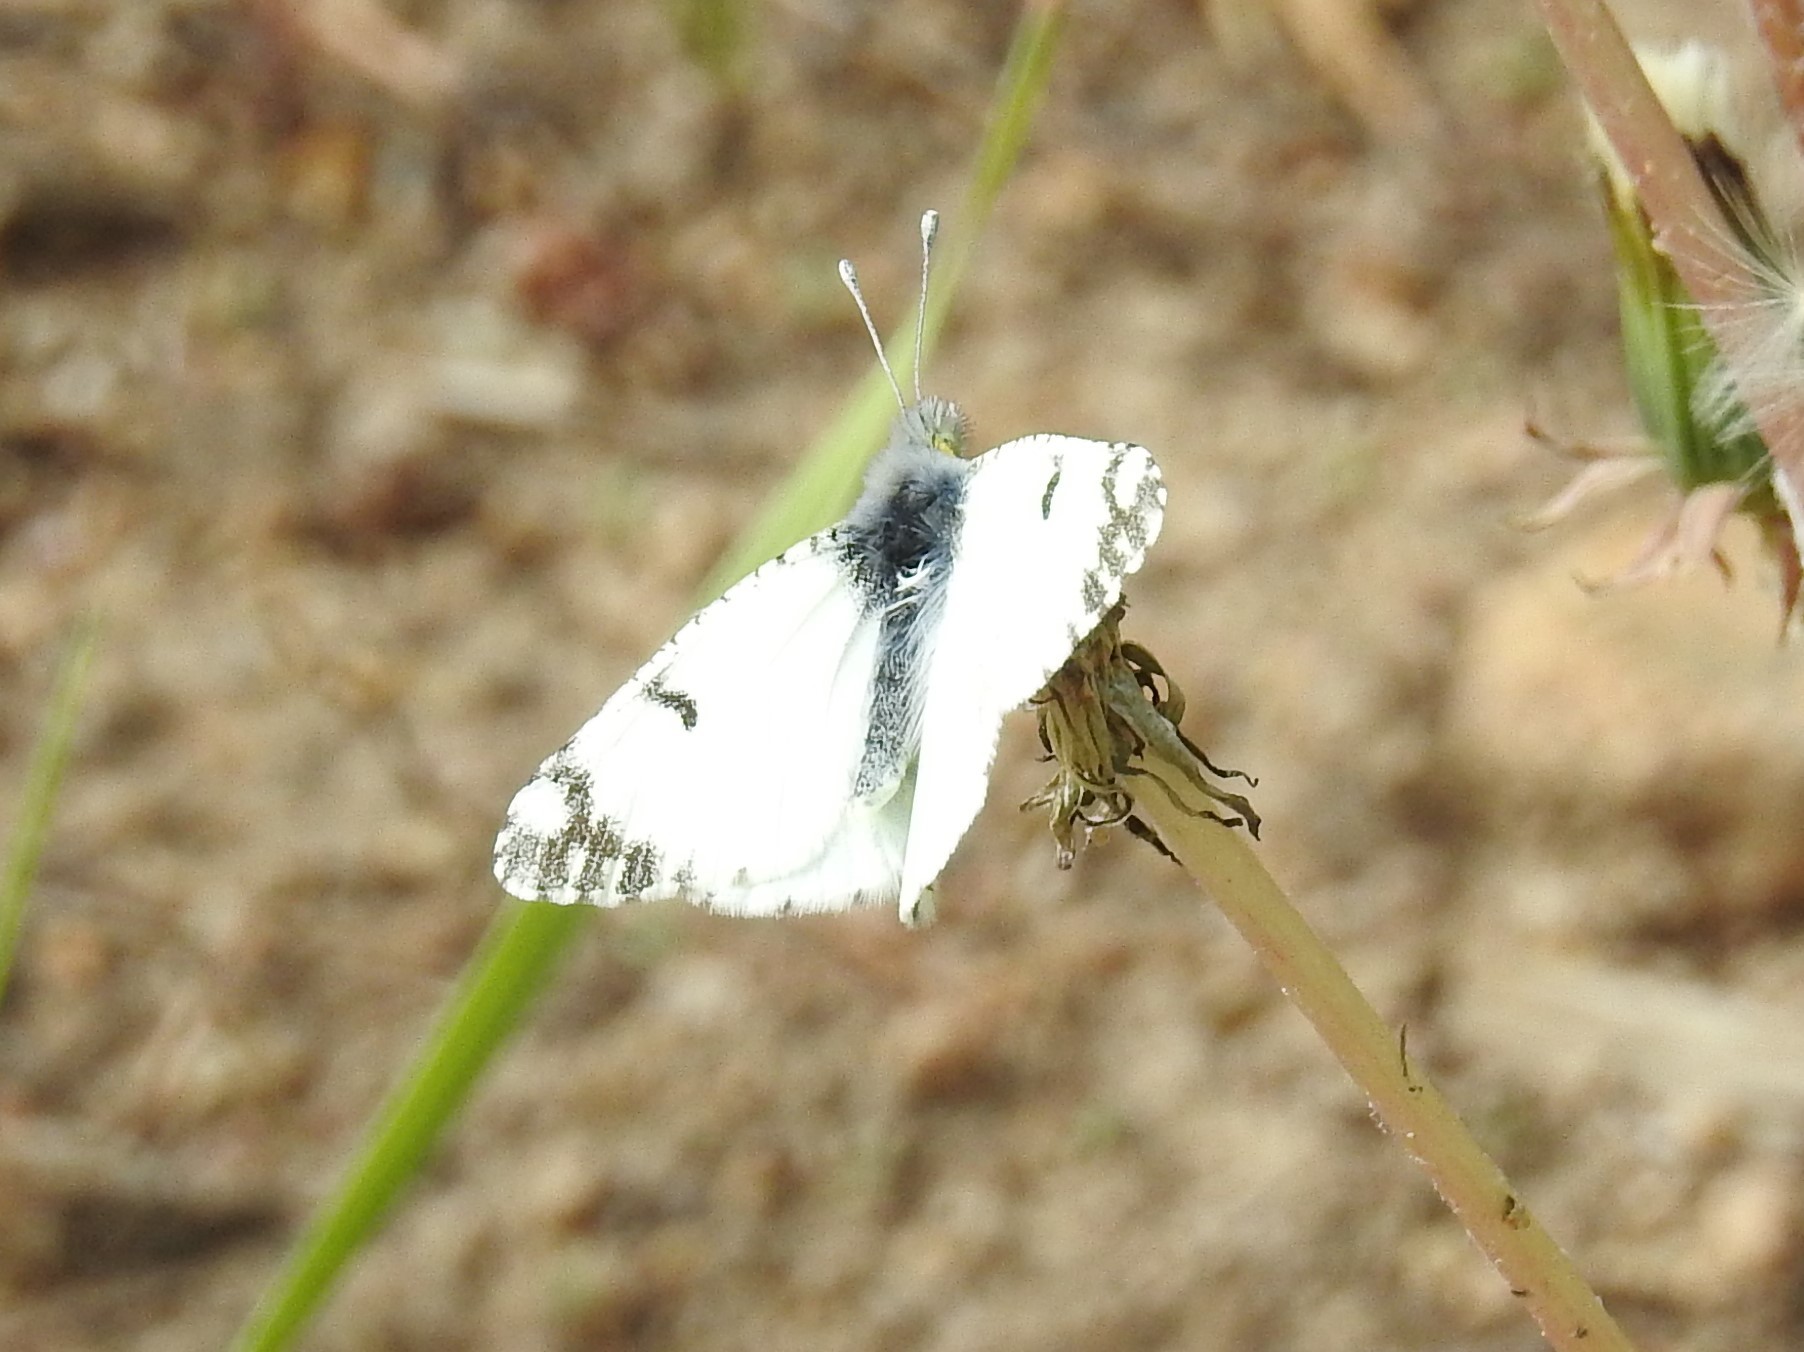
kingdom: Animalia
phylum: Arthropoda
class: Insecta
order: Lepidoptera
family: Pieridae
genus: Euchloe
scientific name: Euchloe ausonides
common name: Creamy marblewing
